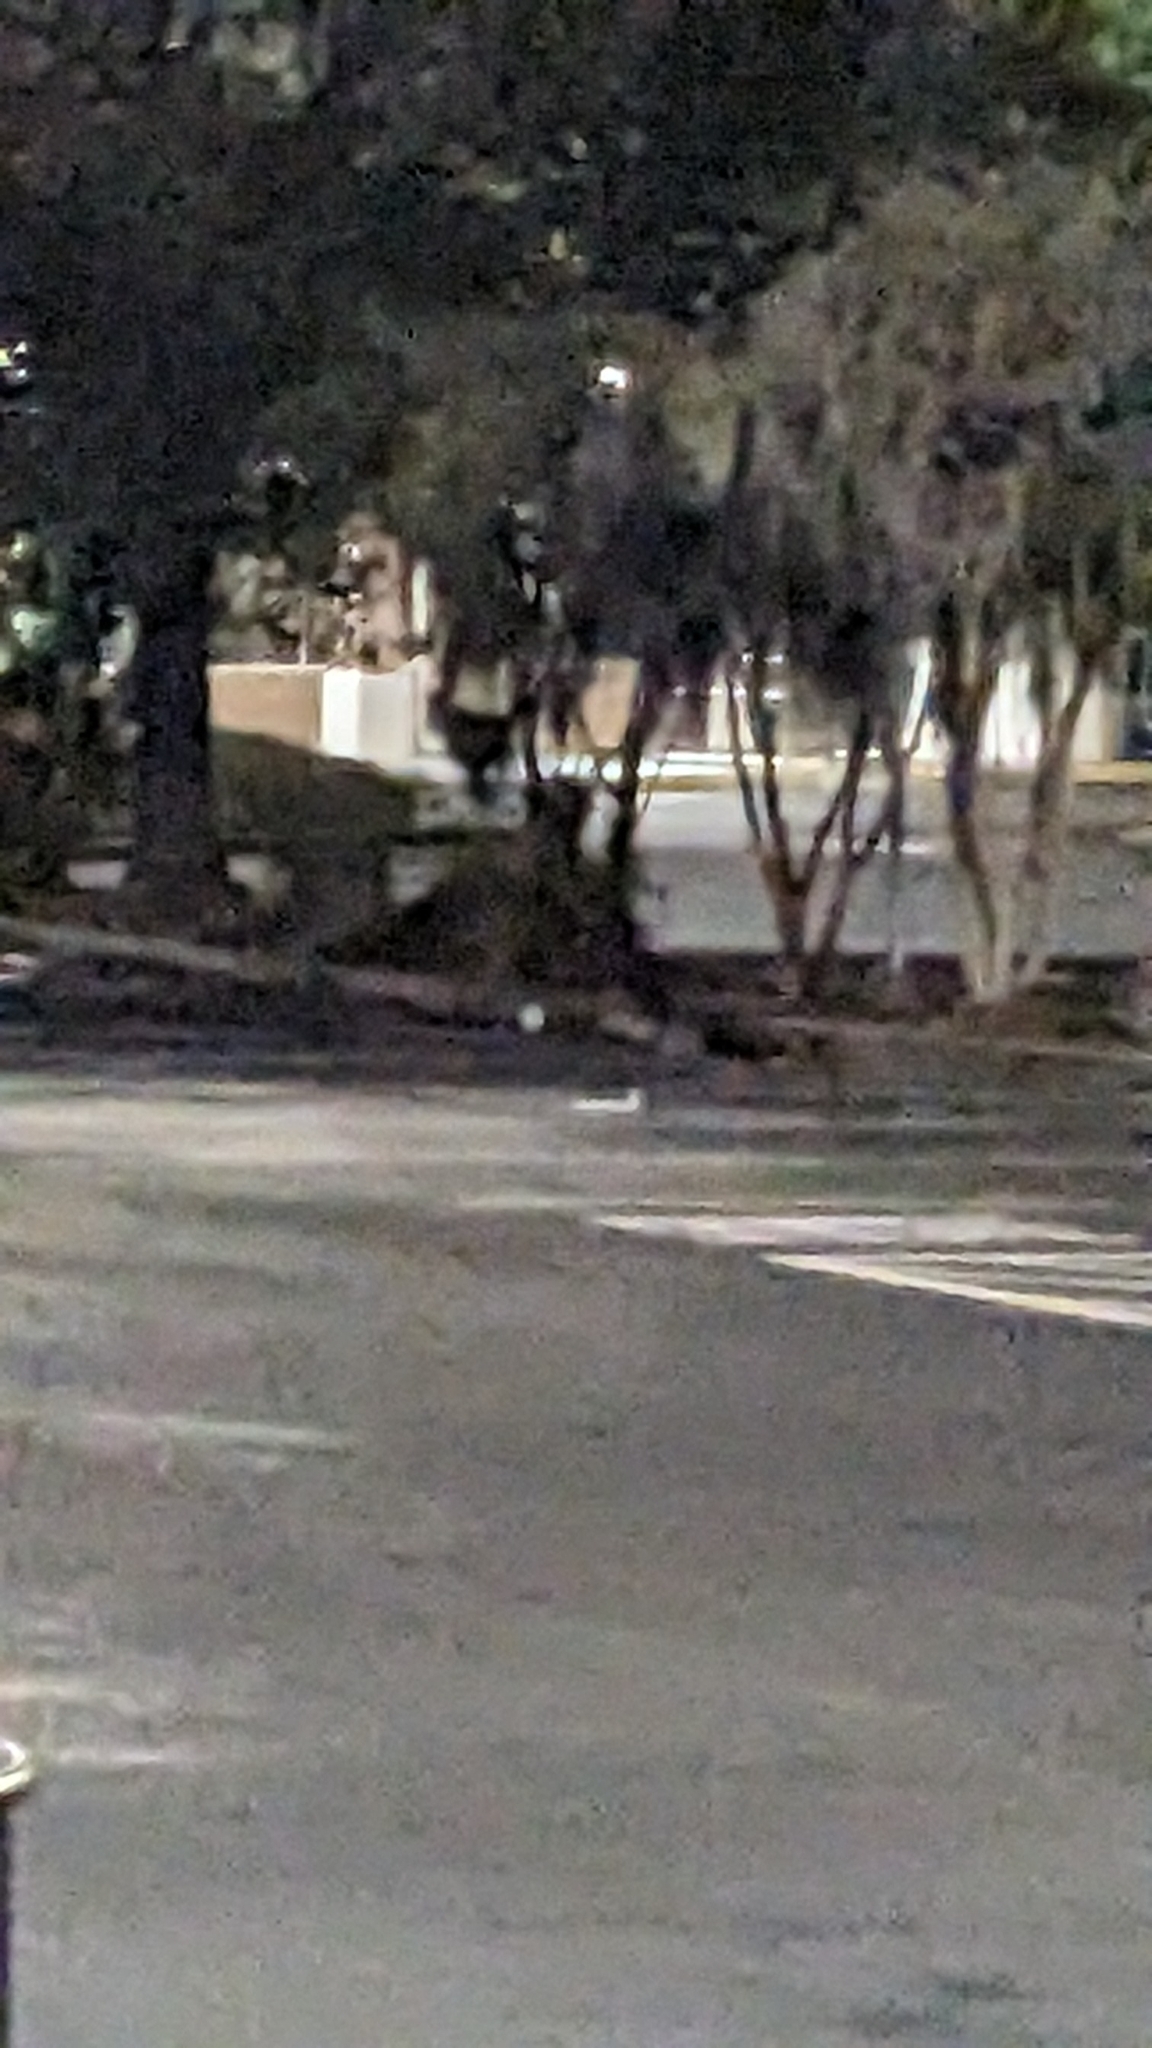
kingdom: Animalia
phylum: Chordata
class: Mammalia
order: Carnivora
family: Procyonidae
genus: Procyon
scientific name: Procyon lotor
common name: Raccoon
